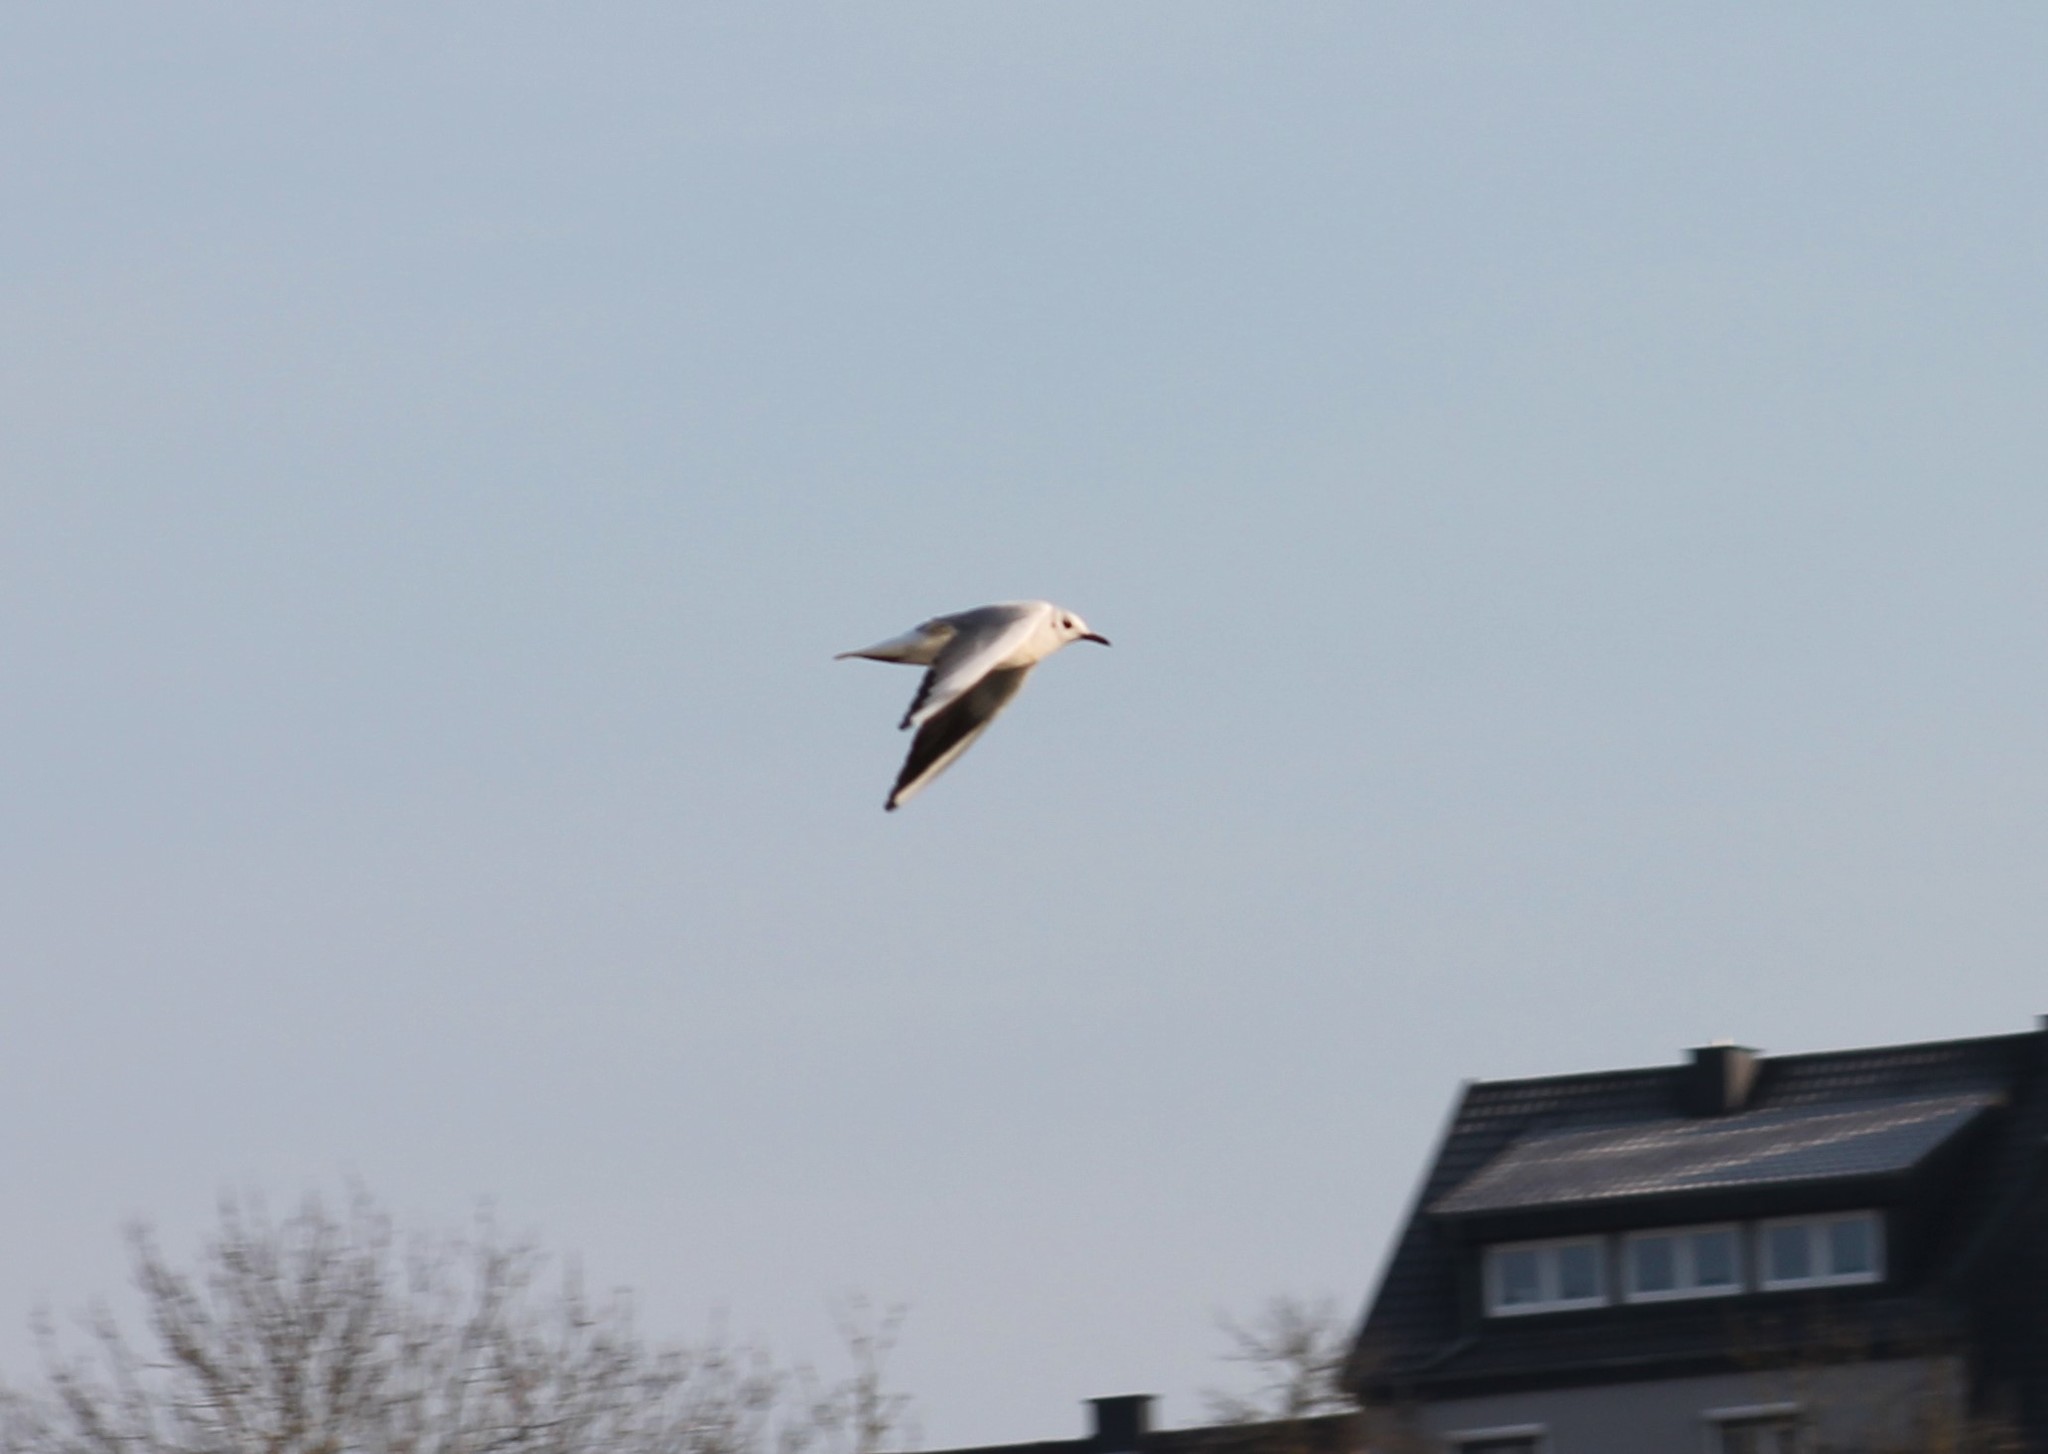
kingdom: Animalia
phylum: Chordata
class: Aves
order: Charadriiformes
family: Laridae
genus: Chroicocephalus
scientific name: Chroicocephalus ridibundus
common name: Black-headed gull
